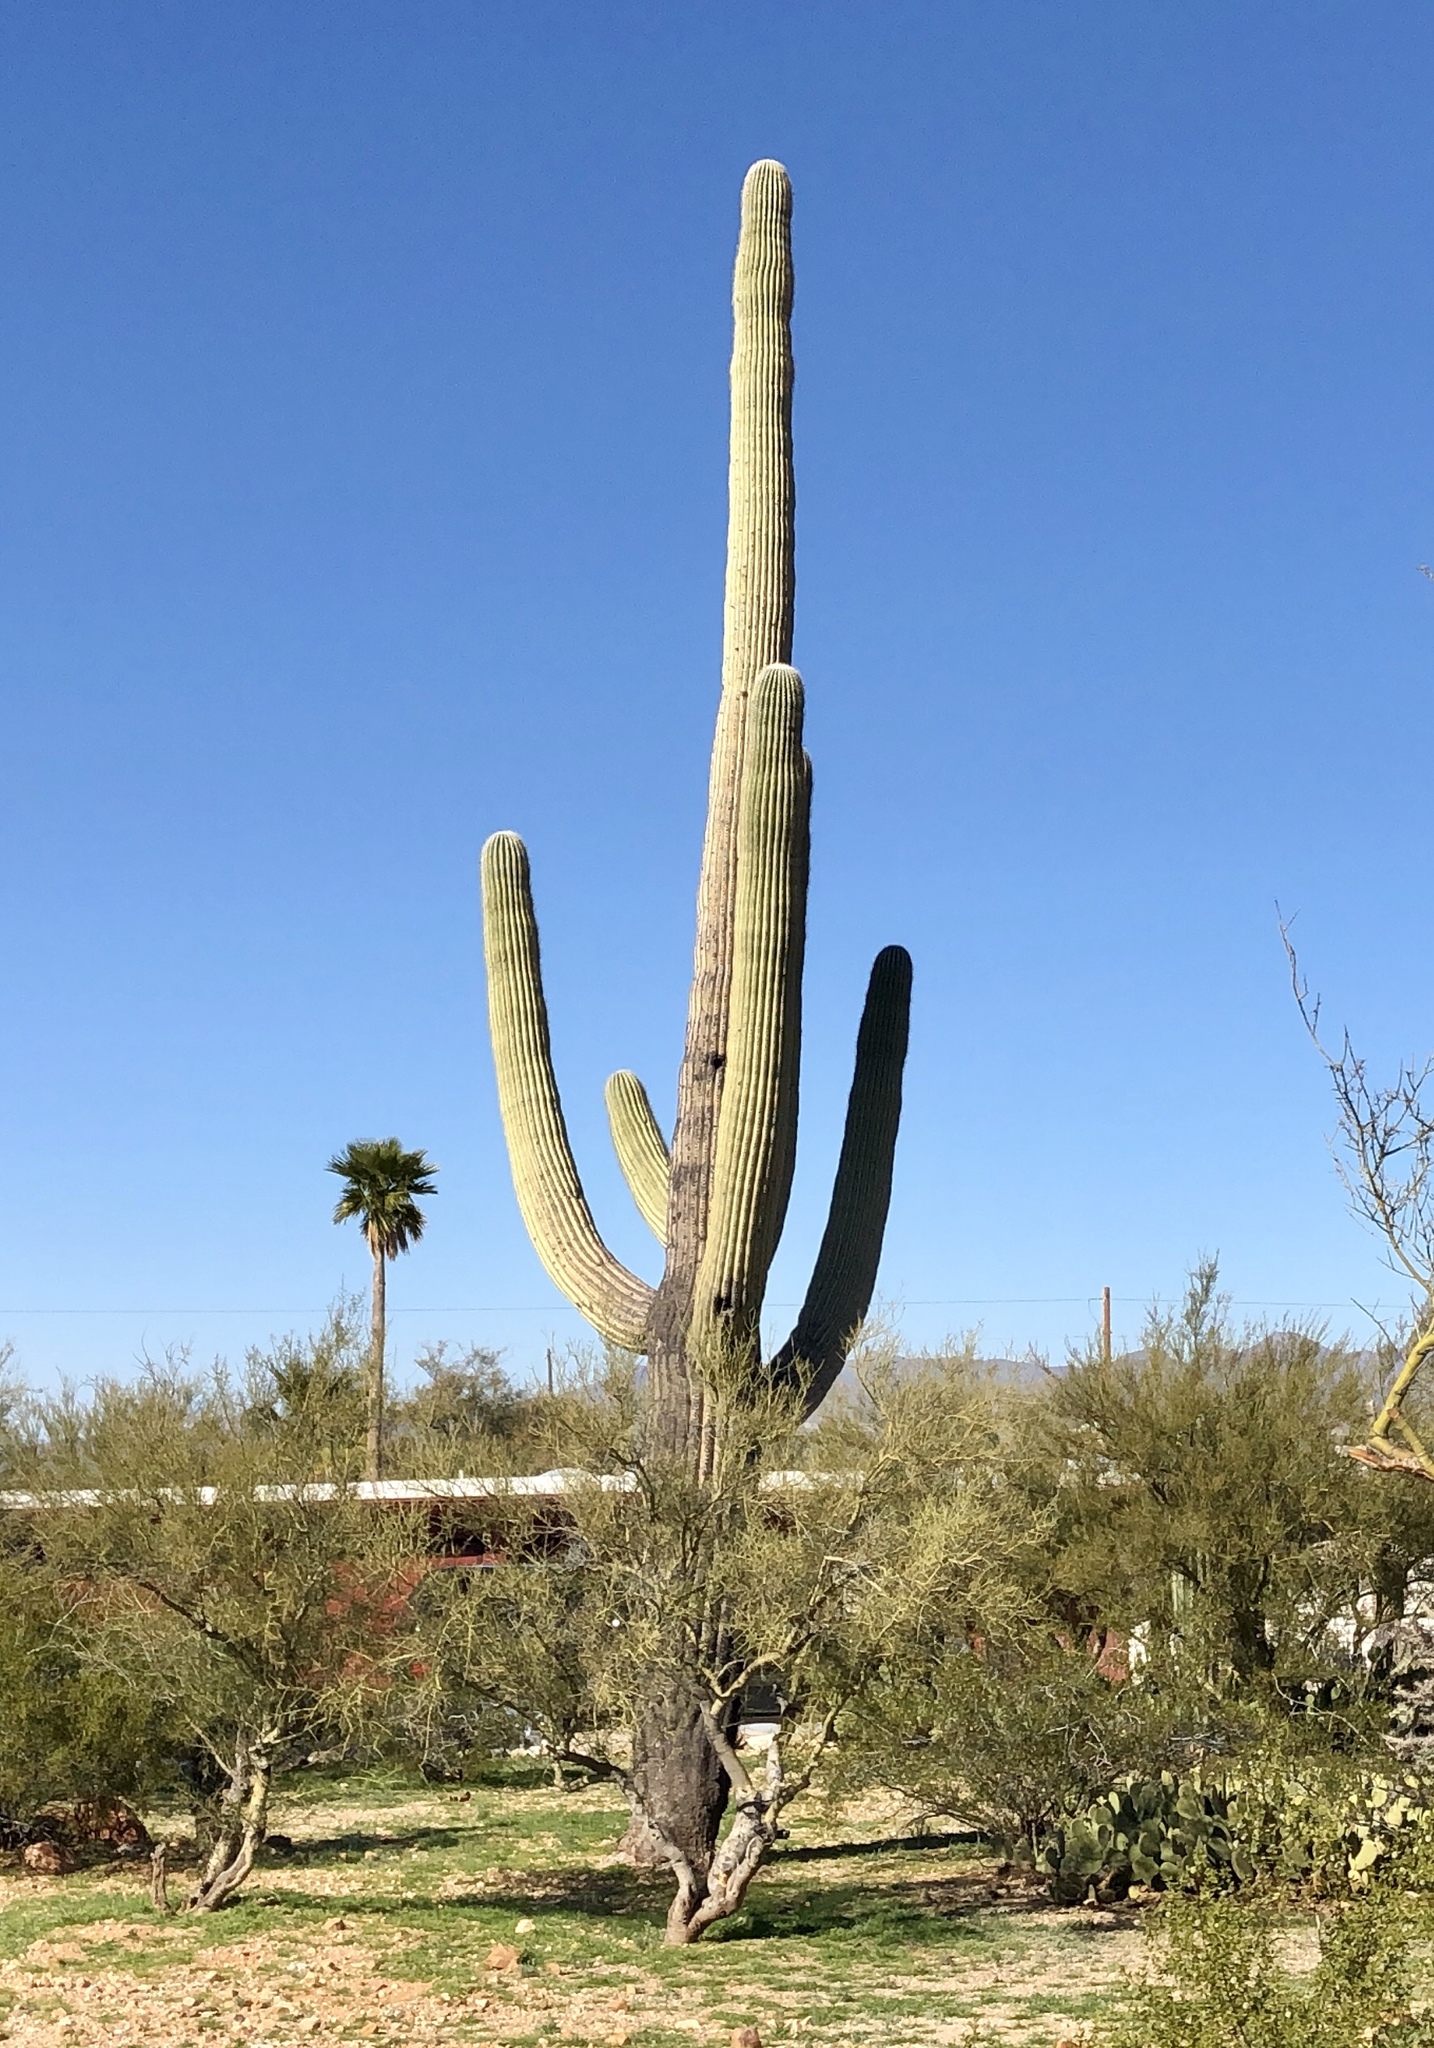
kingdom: Plantae
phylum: Tracheophyta
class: Magnoliopsida
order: Caryophyllales
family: Cactaceae
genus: Carnegiea
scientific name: Carnegiea gigantea
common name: Saguaro
